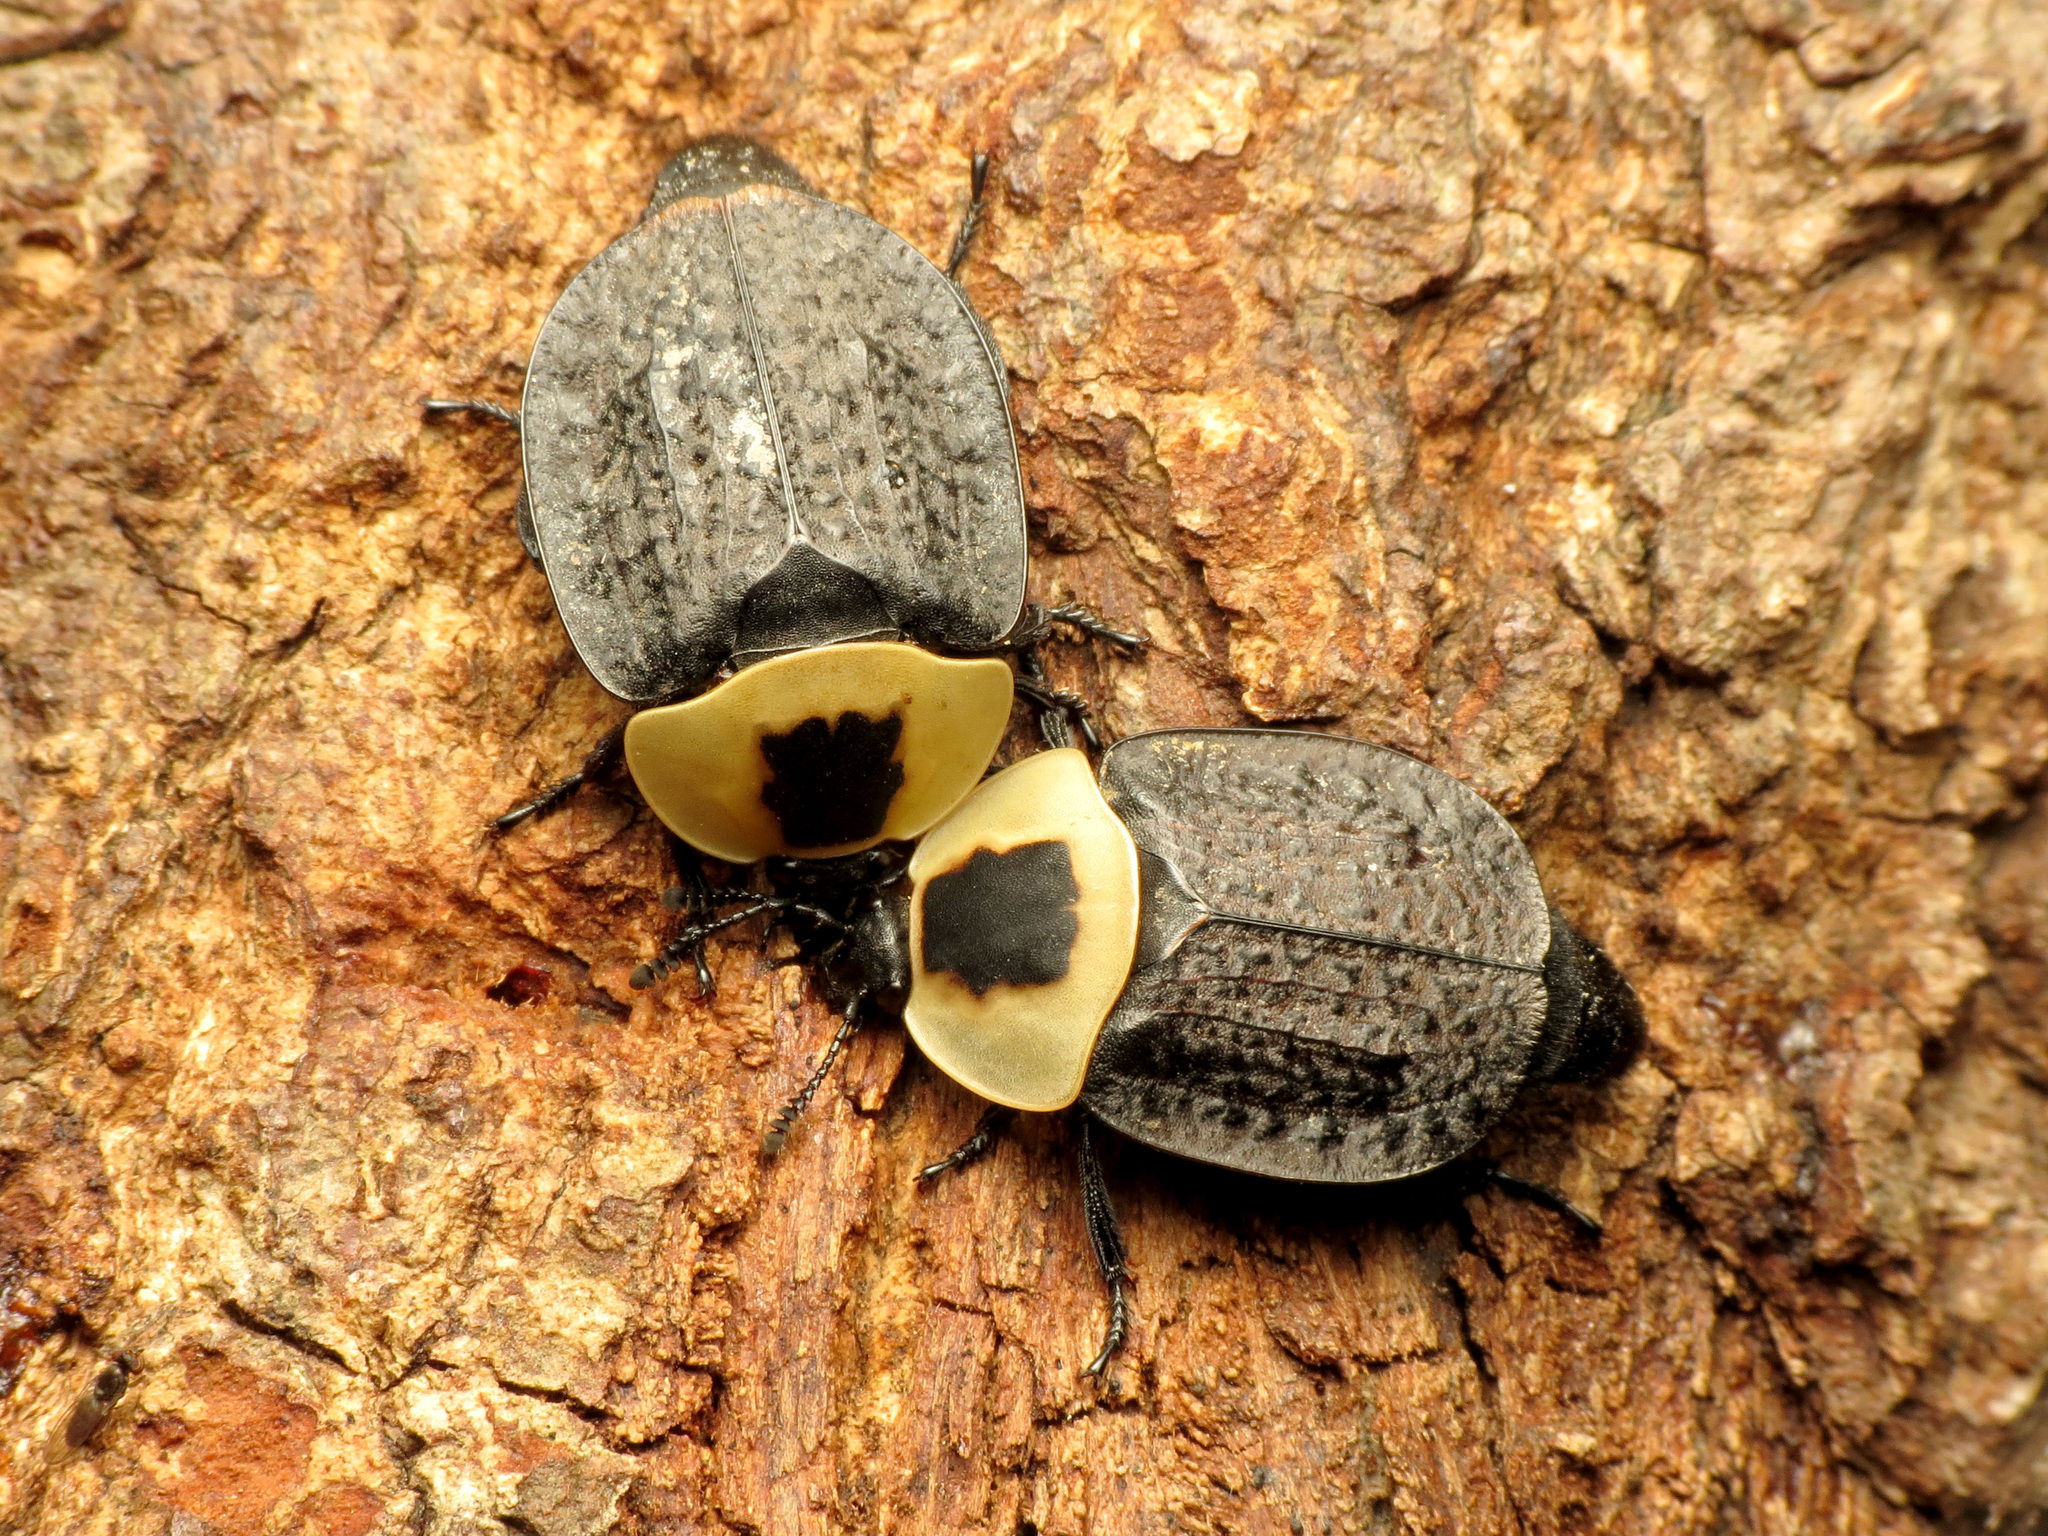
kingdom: Animalia
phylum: Arthropoda
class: Insecta
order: Coleoptera
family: Staphylinidae
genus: Necrophila
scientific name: Necrophila americana
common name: American carrion beetle
